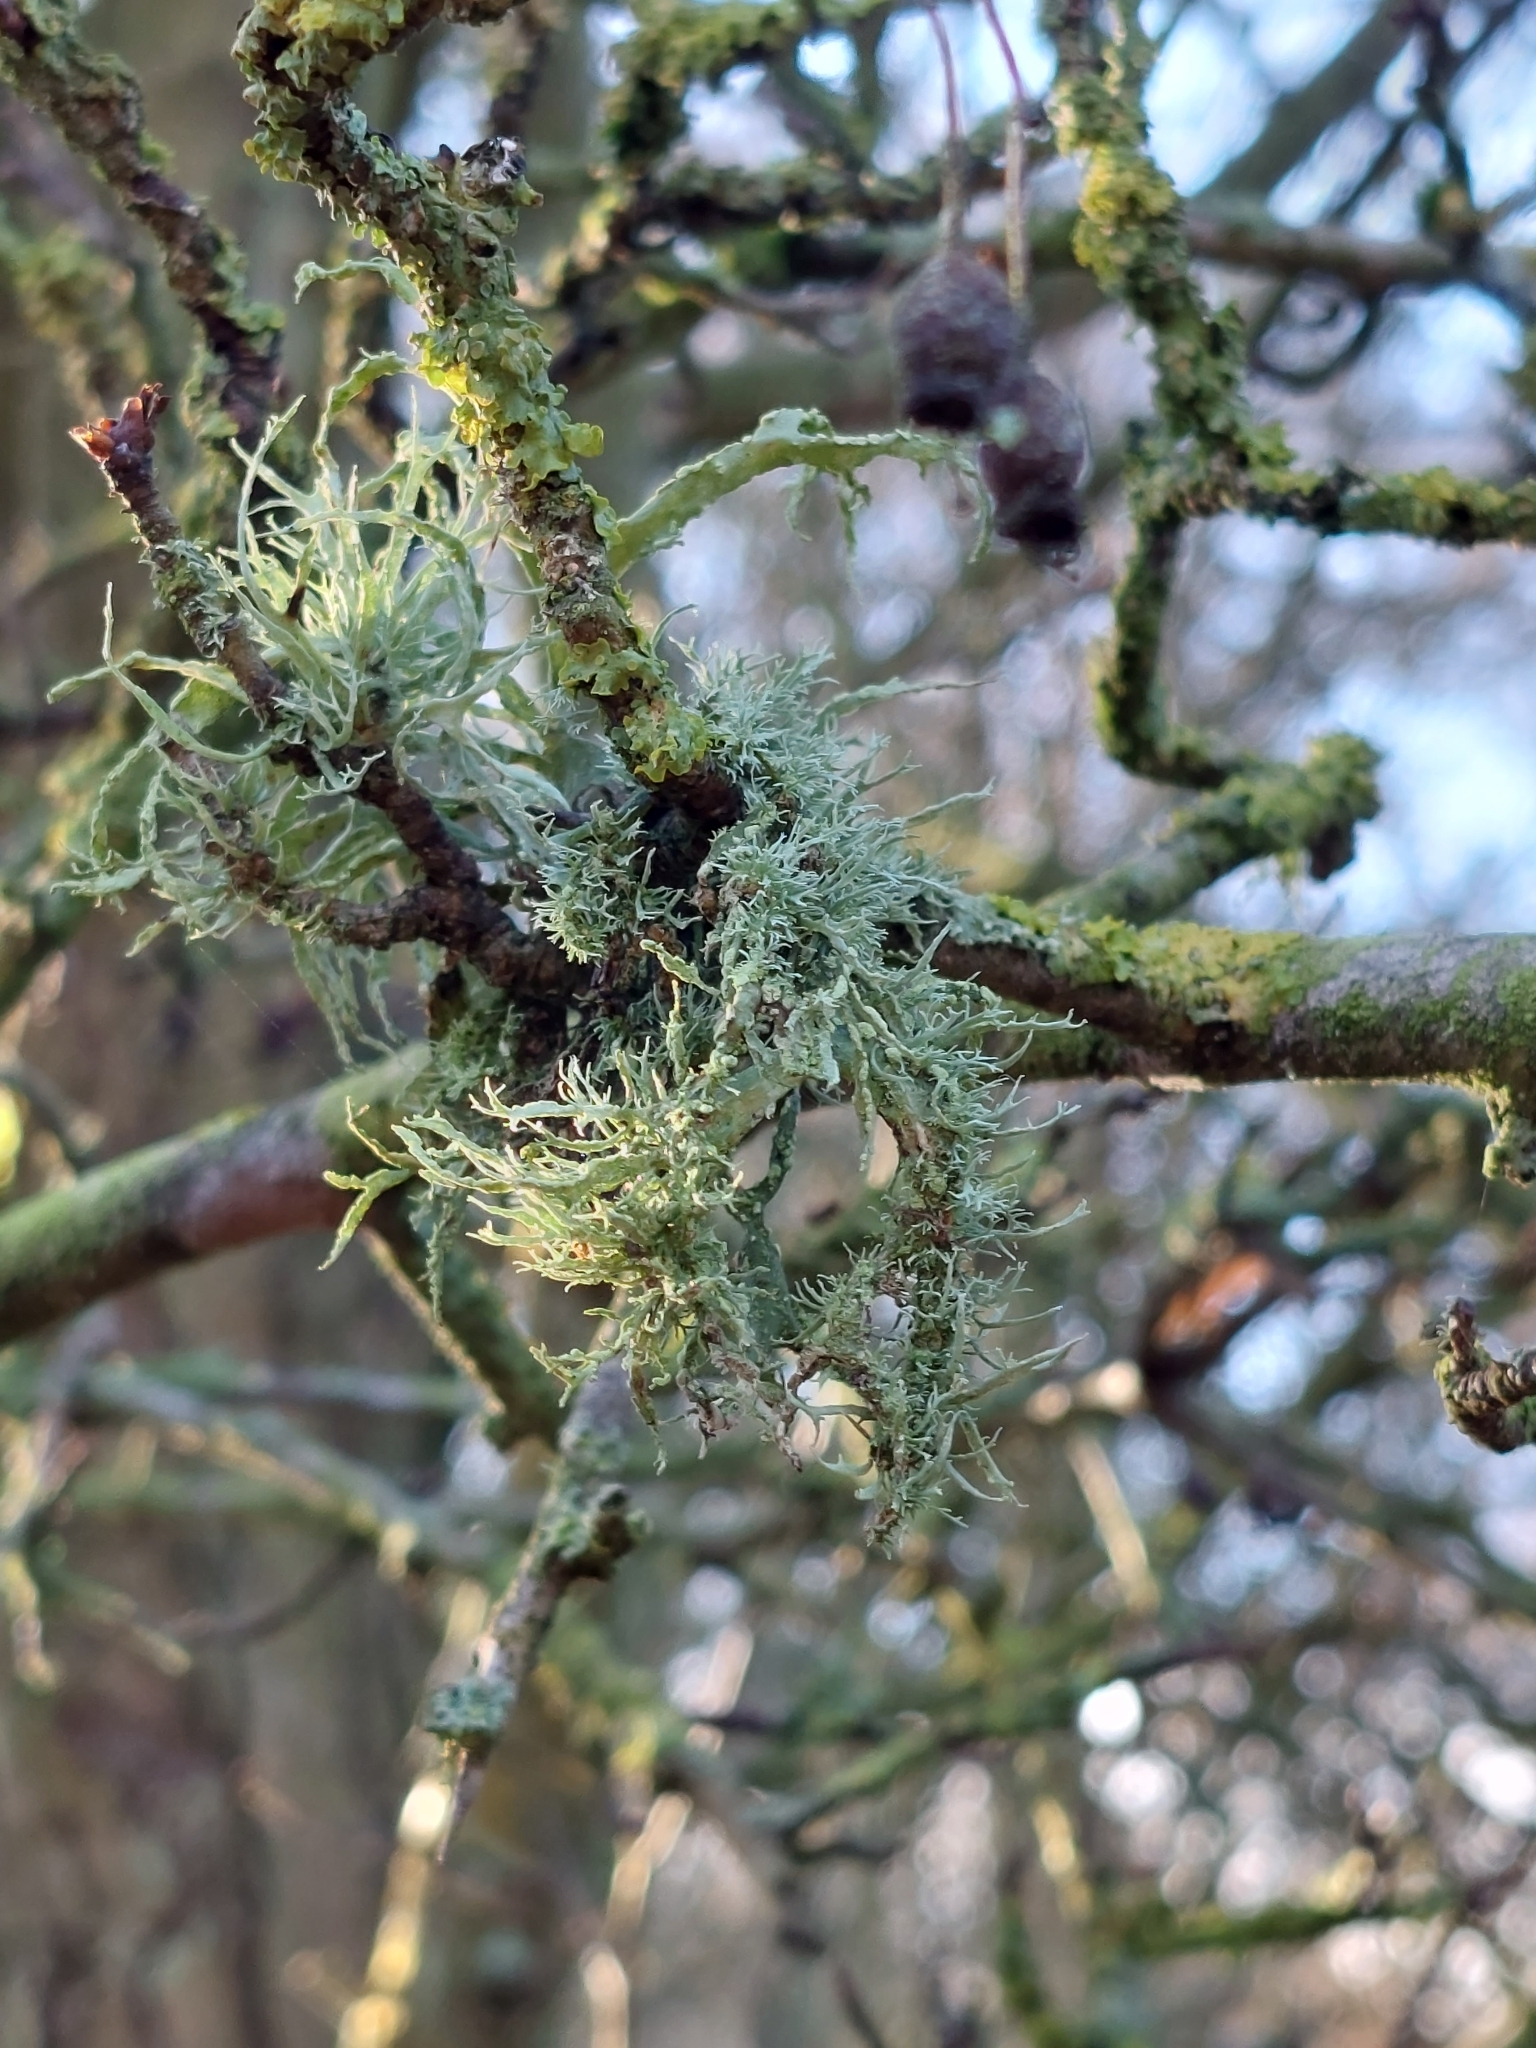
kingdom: Fungi
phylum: Ascomycota
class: Lecanoromycetes
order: Lecanorales
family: Ramalinaceae
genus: Ramalina
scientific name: Ramalina farinacea
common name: Farinose cartilage lichen
